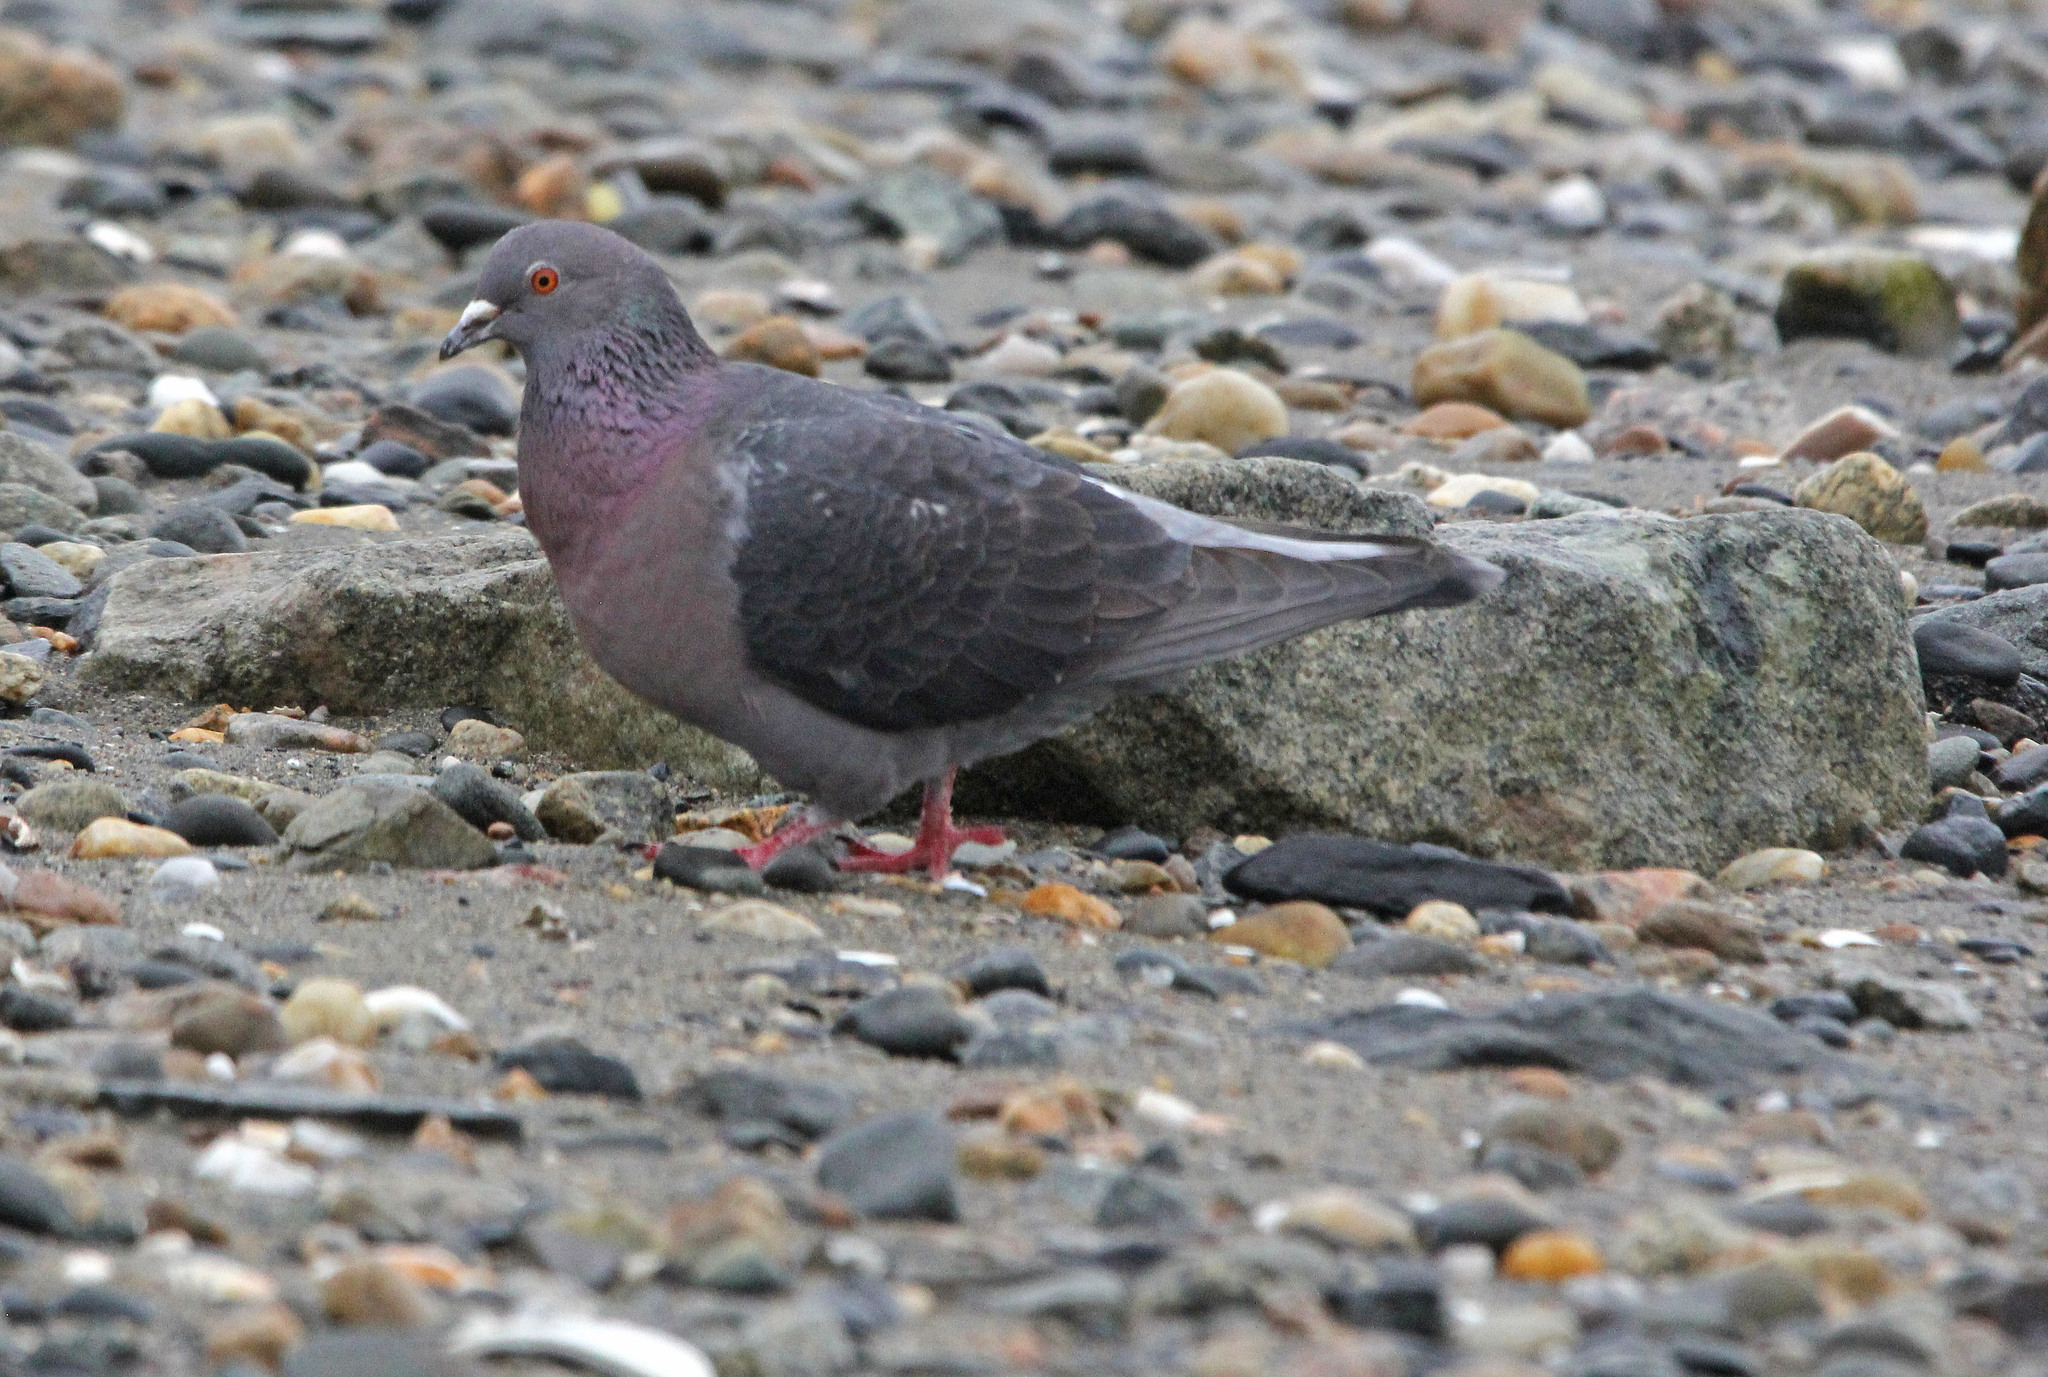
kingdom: Animalia
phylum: Chordata
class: Aves
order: Columbiformes
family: Columbidae
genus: Columba
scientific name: Columba livia
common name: Rock pigeon
